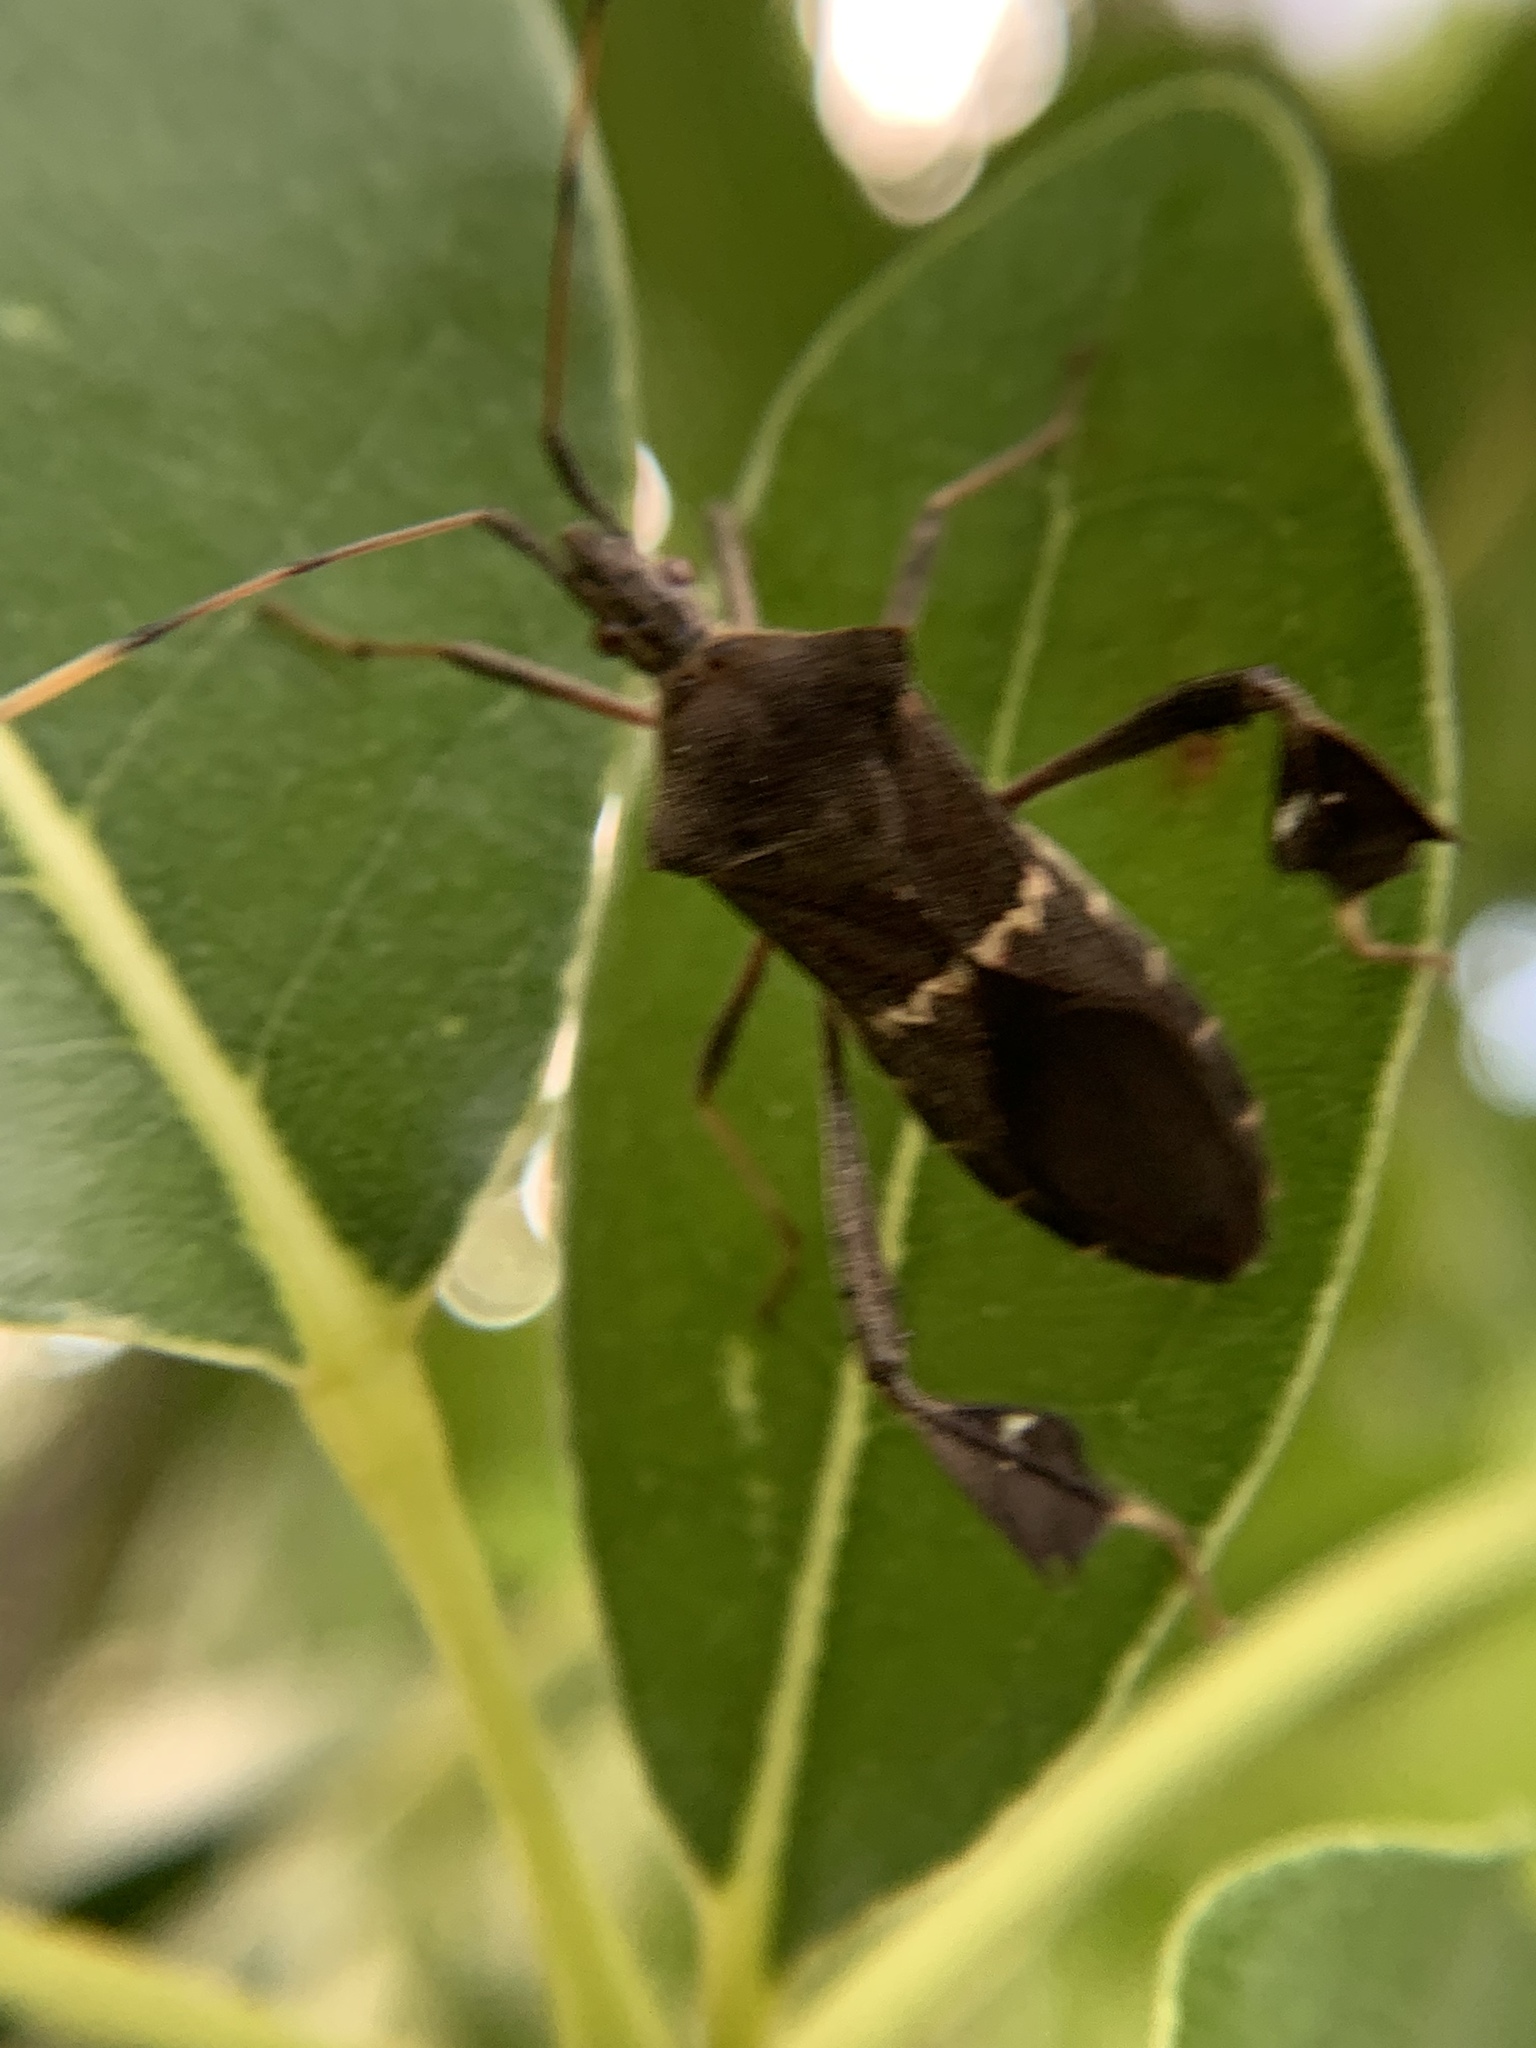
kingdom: Animalia
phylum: Arthropoda
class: Insecta
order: Hemiptera
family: Coreidae
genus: Leptoglossus
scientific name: Leptoglossus concolor
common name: Leaf-footed bug
